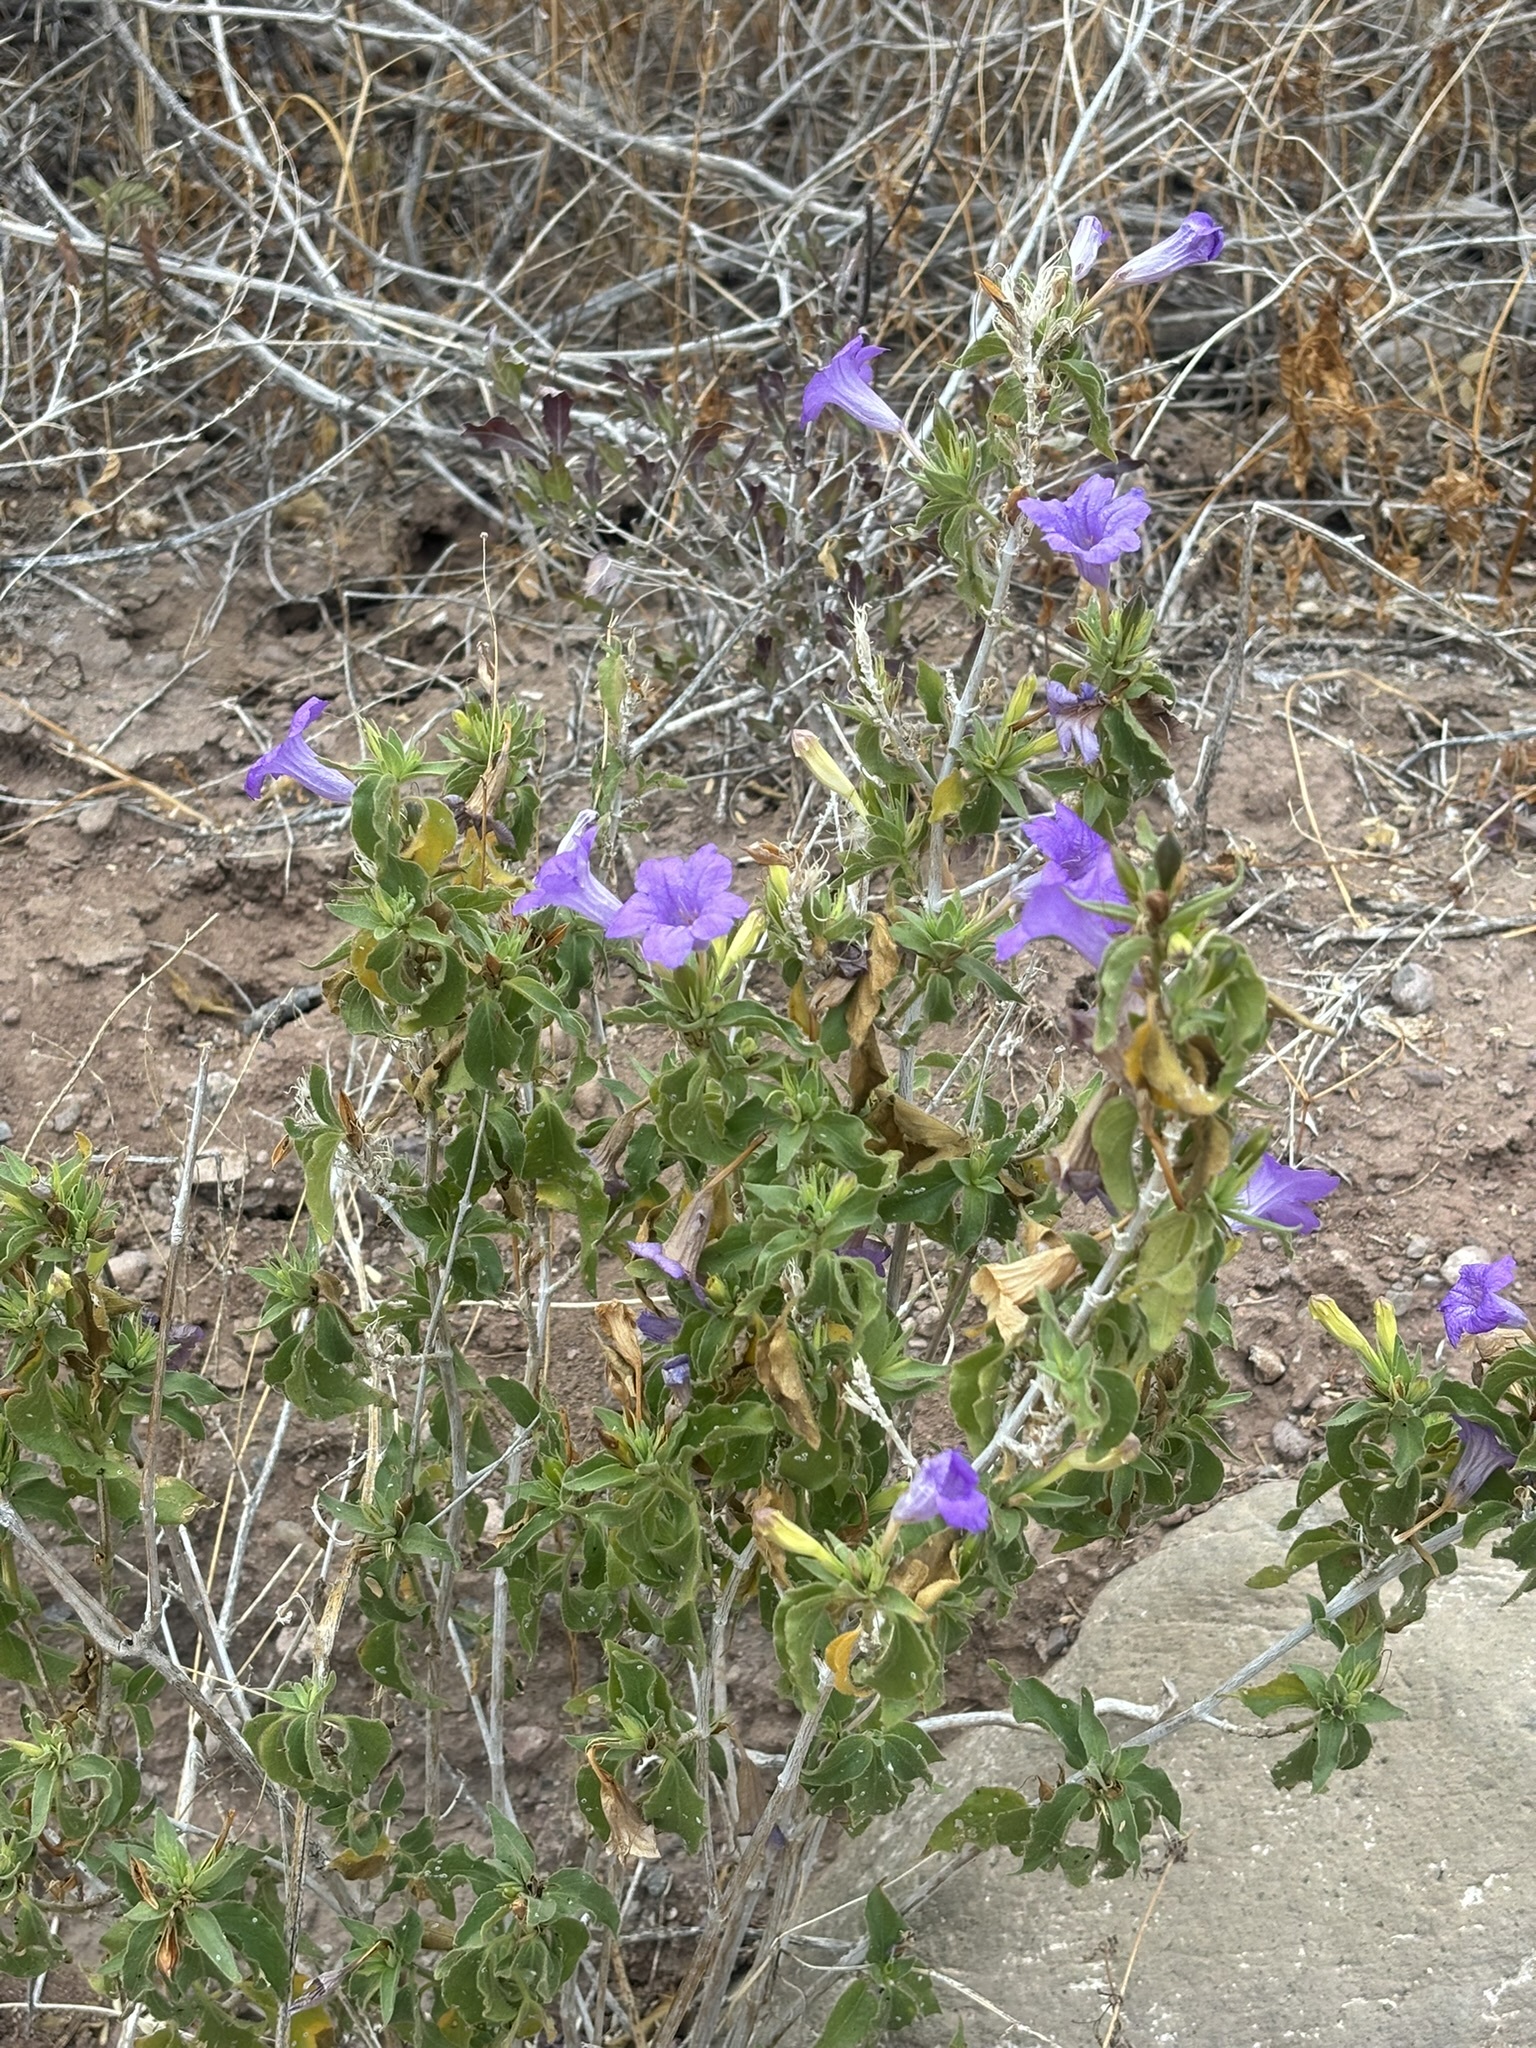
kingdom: Plantae
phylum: Tracheophyta
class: Magnoliopsida
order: Lamiales
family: Acanthaceae
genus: Ruellia
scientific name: Ruellia californica
